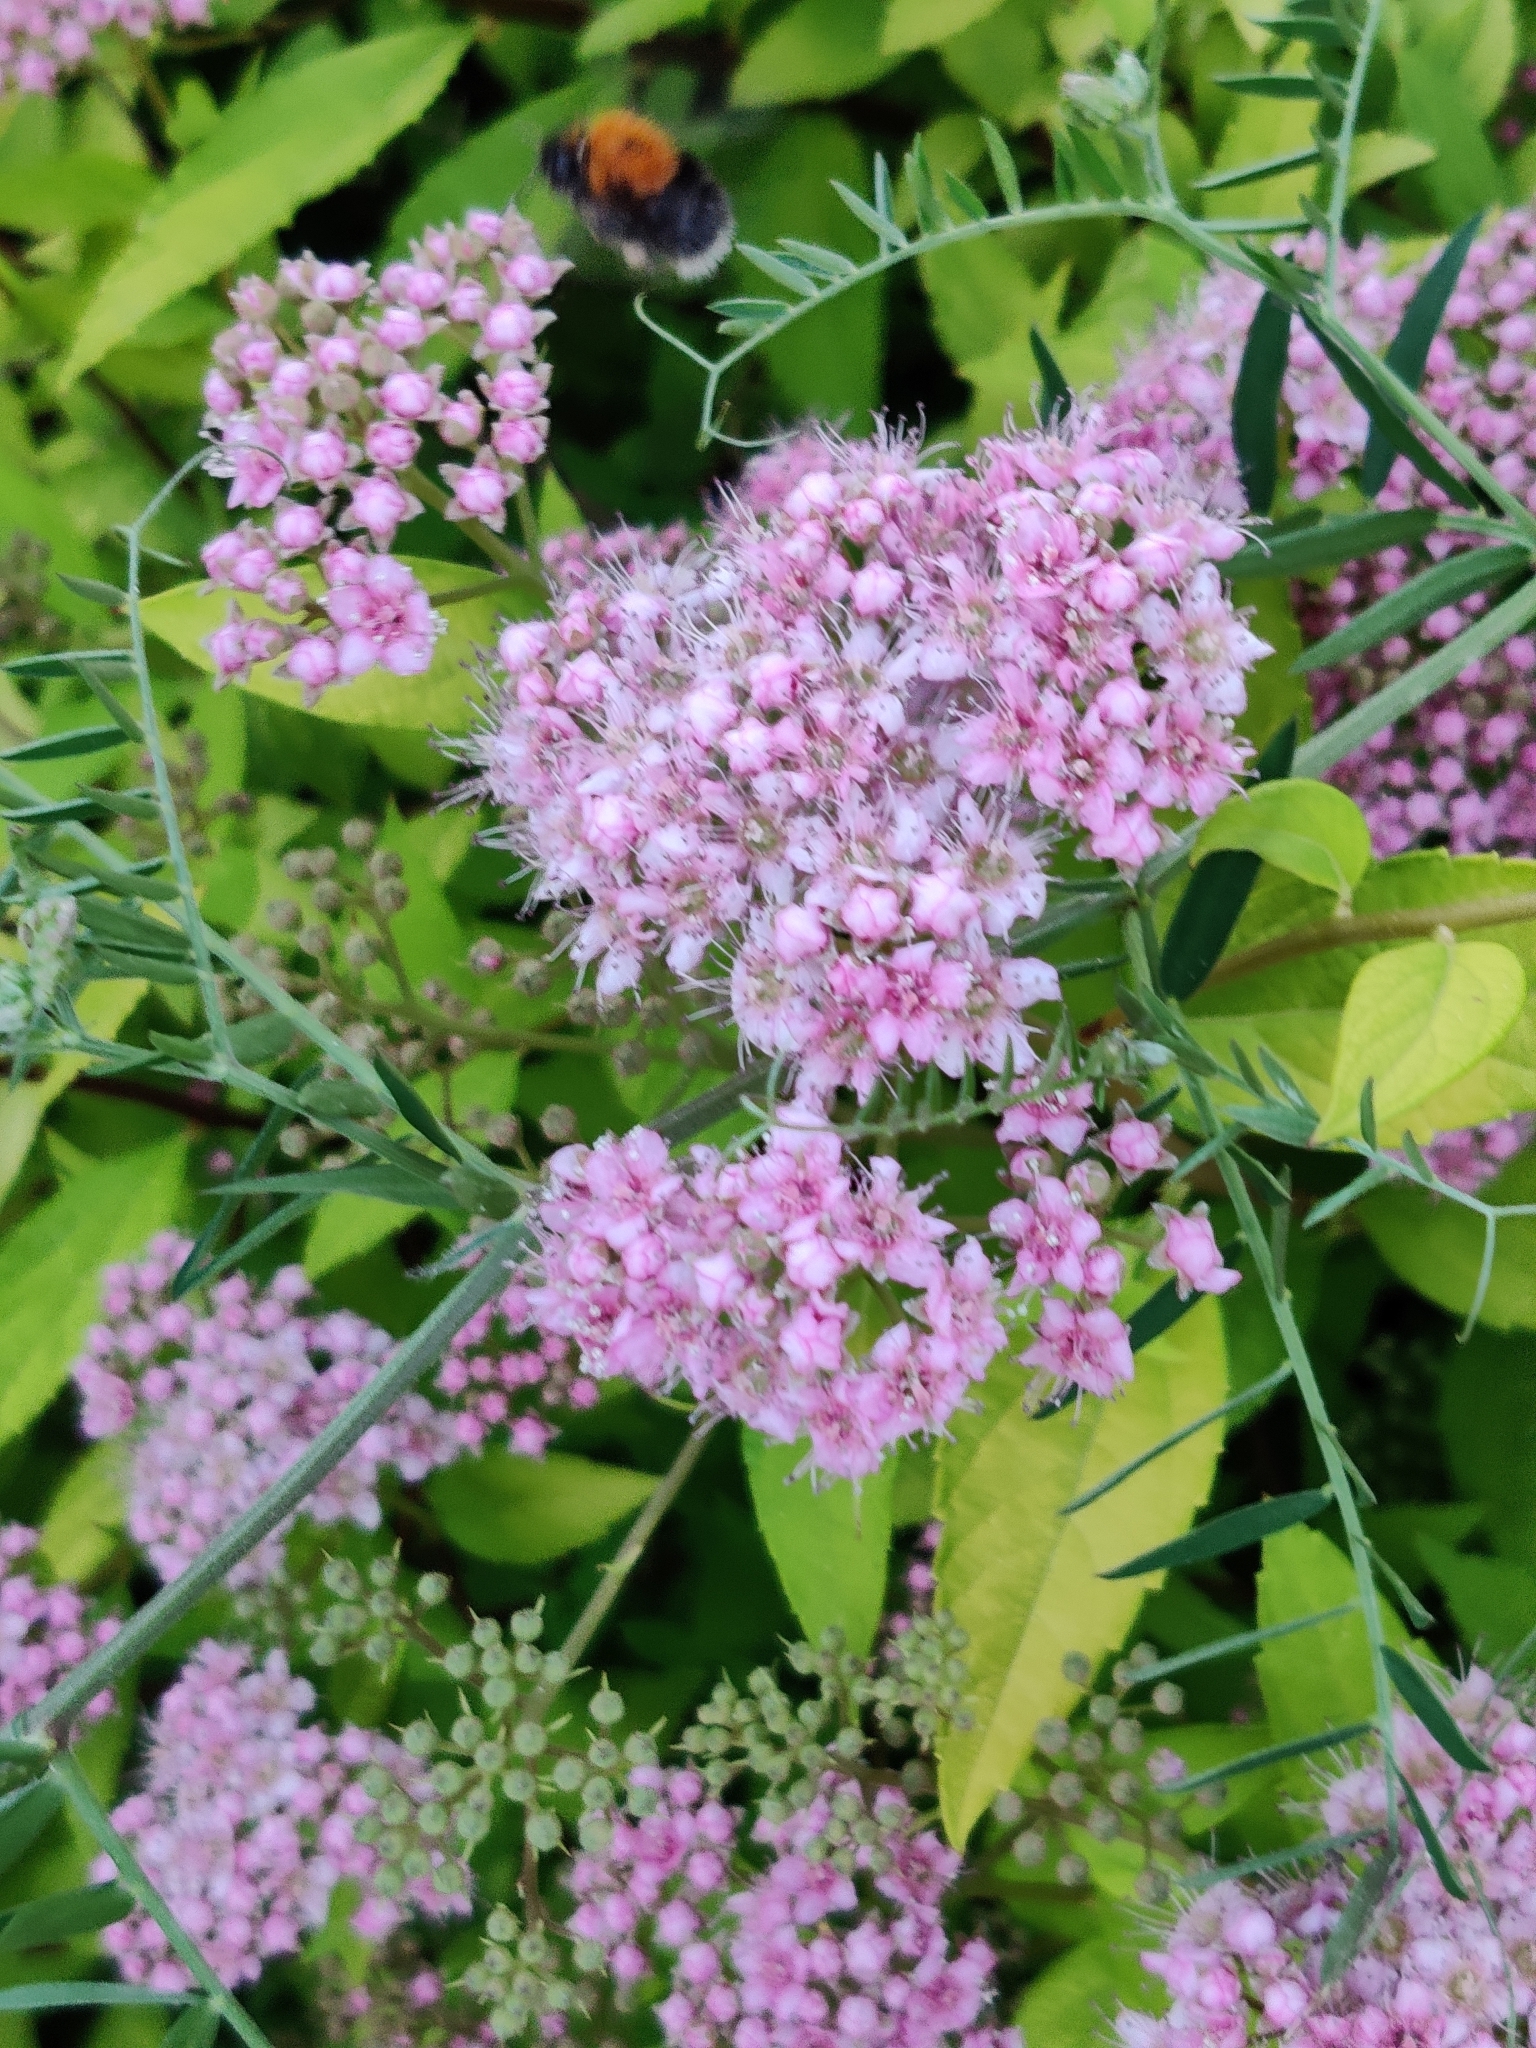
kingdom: Animalia
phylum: Arthropoda
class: Insecta
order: Hymenoptera
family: Apidae
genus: Bombus
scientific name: Bombus hypnorum
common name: New garden bumblebee
